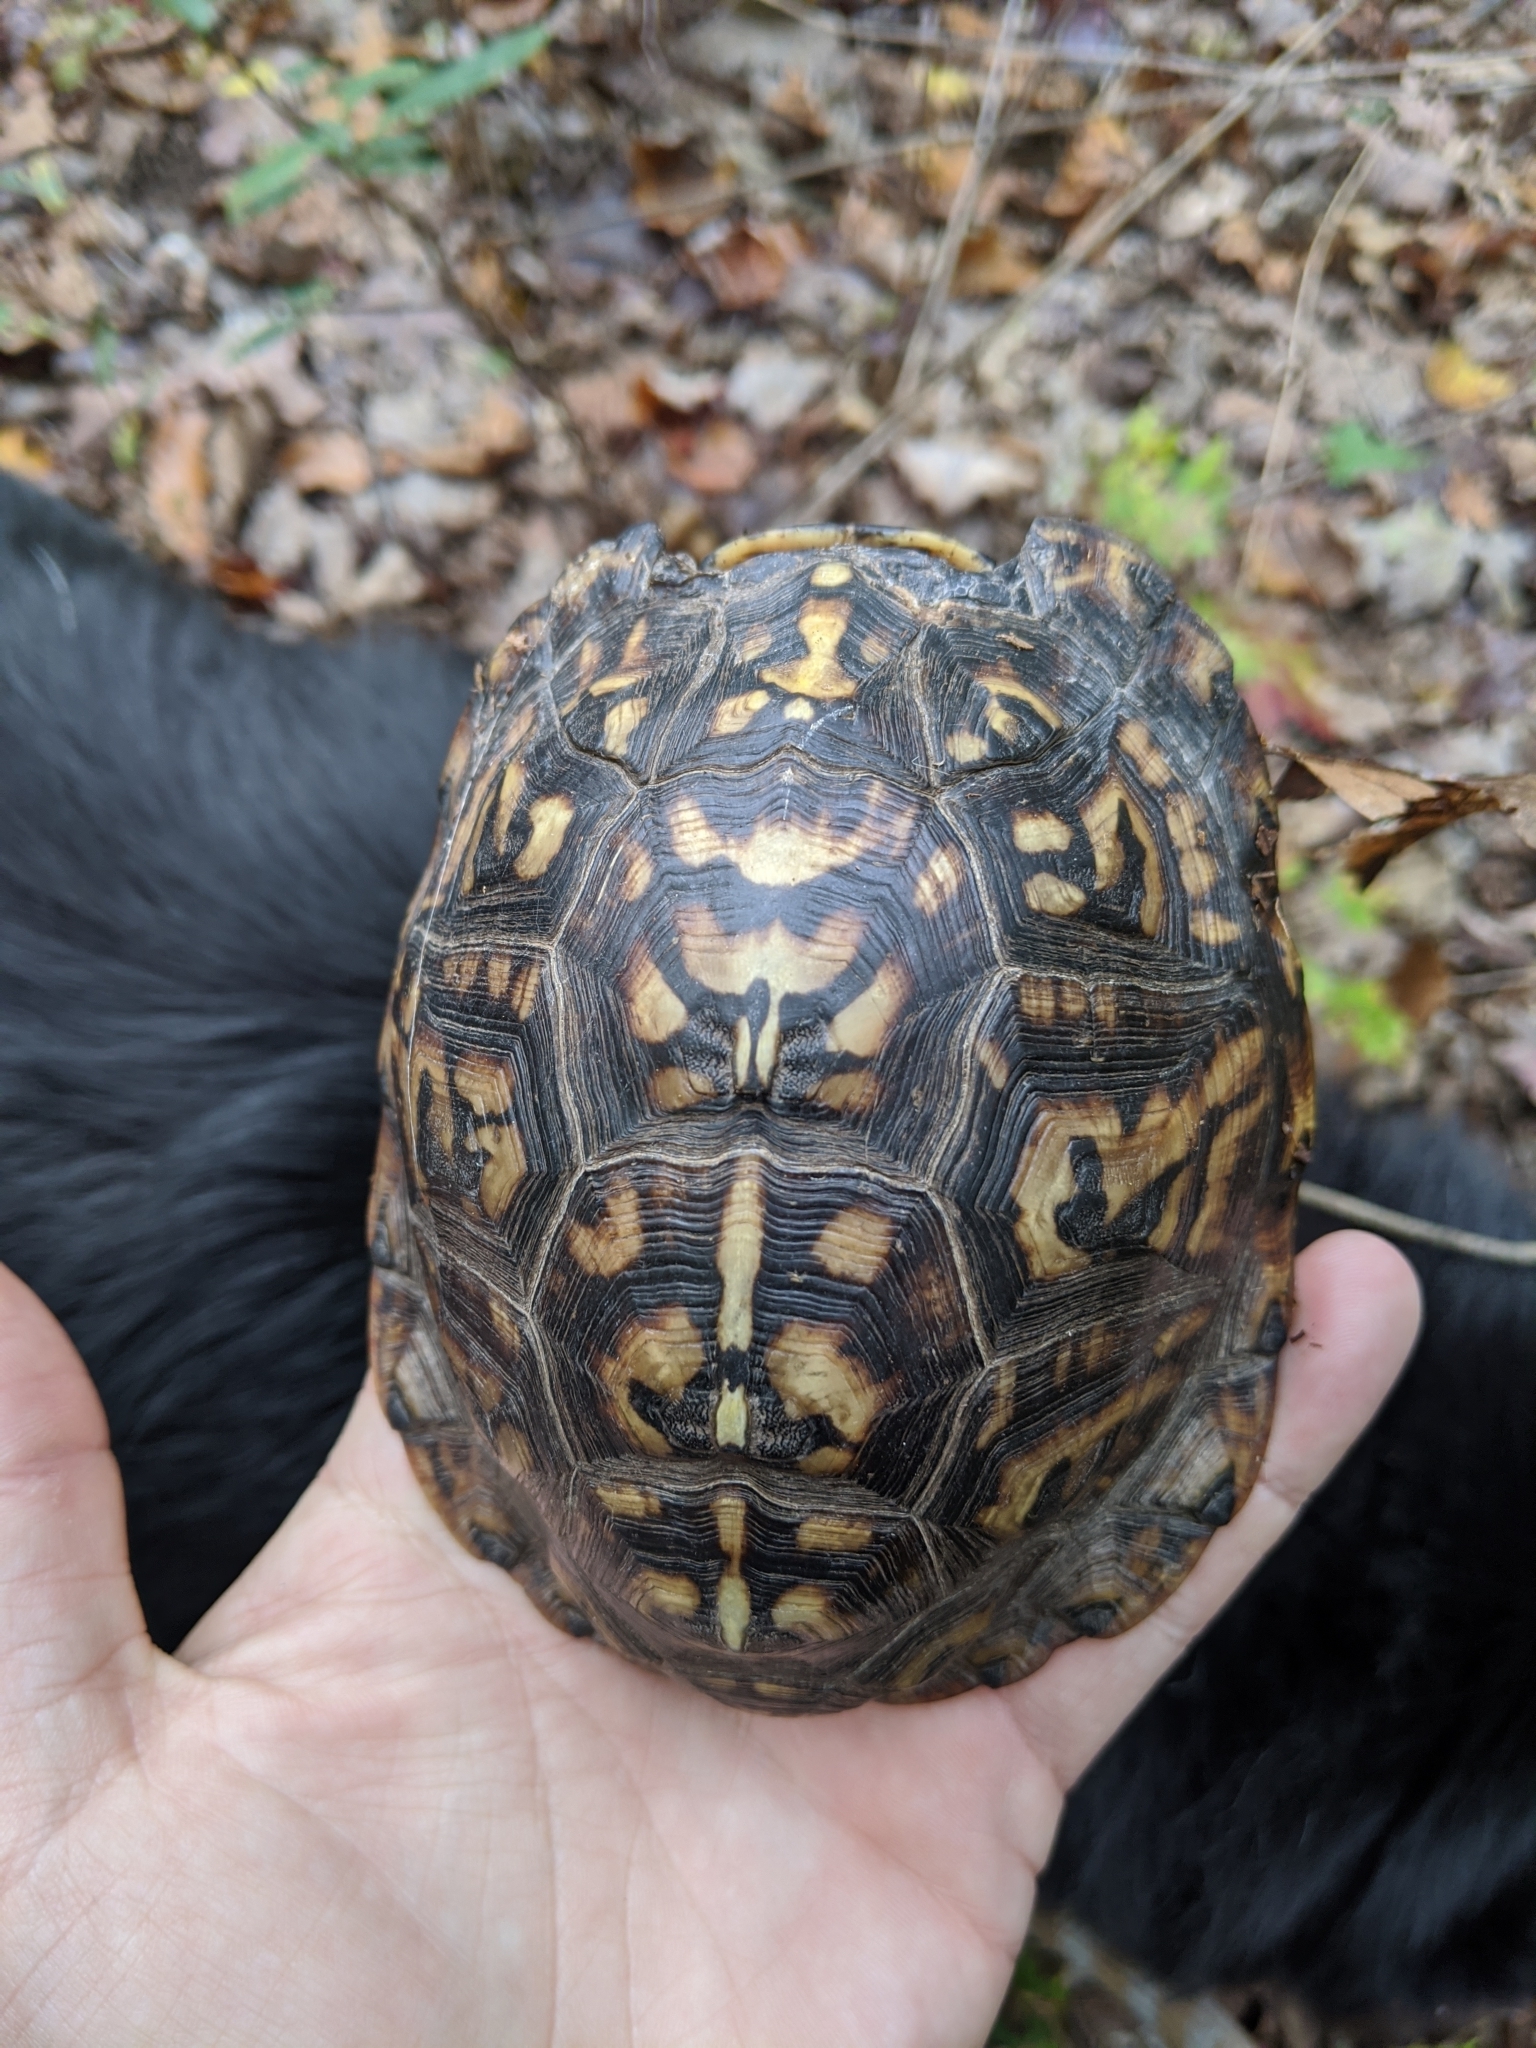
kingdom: Animalia
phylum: Chordata
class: Testudines
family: Emydidae
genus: Terrapene
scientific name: Terrapene carolina
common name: Common box turtle
